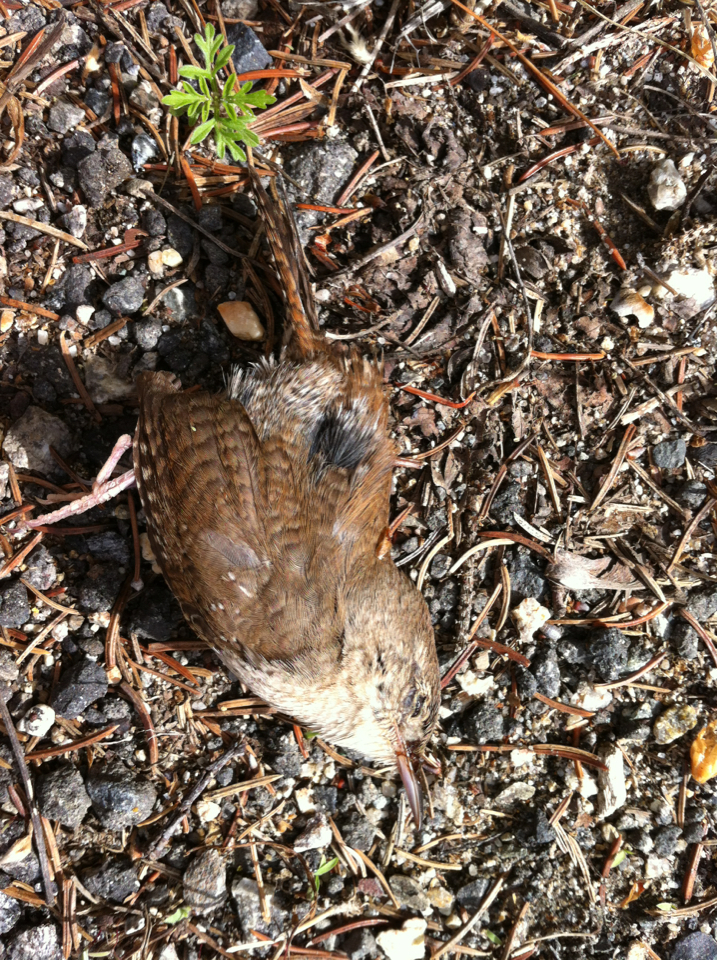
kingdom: Animalia
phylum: Chordata
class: Aves
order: Passeriformes
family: Troglodytidae
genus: Troglodytes
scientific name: Troglodytes aedon
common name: House wren
